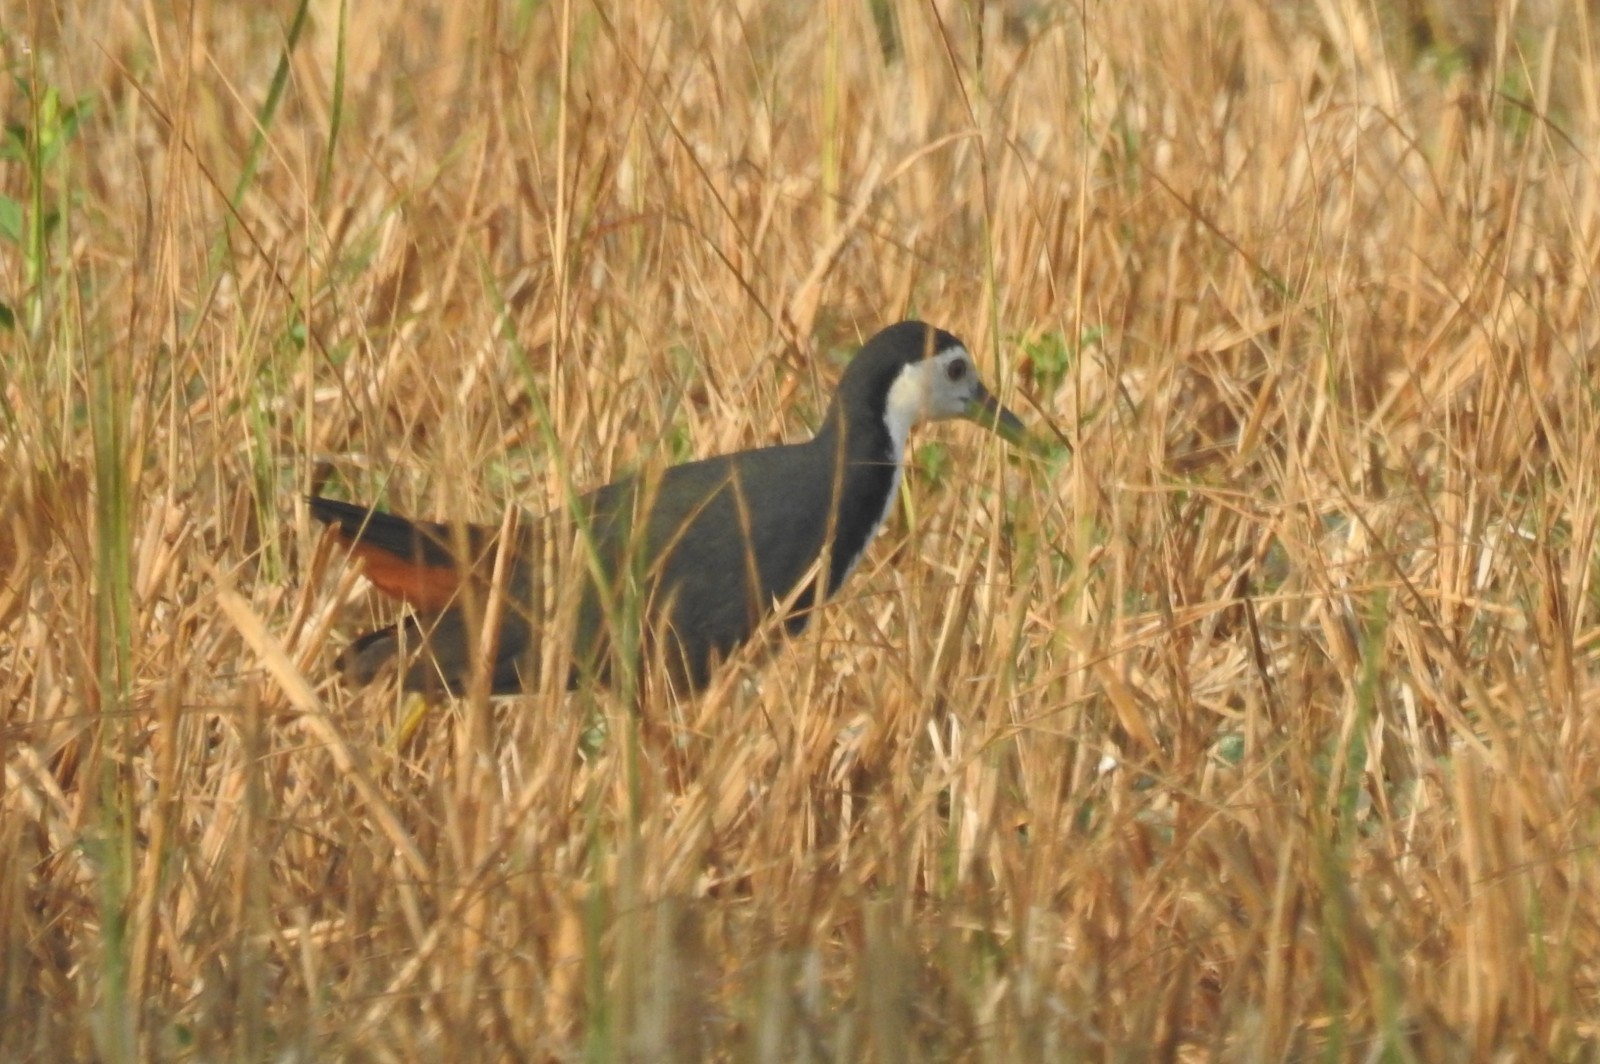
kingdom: Animalia
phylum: Chordata
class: Aves
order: Gruiformes
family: Rallidae
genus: Amaurornis
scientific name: Amaurornis phoenicurus
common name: White-breasted waterhen
